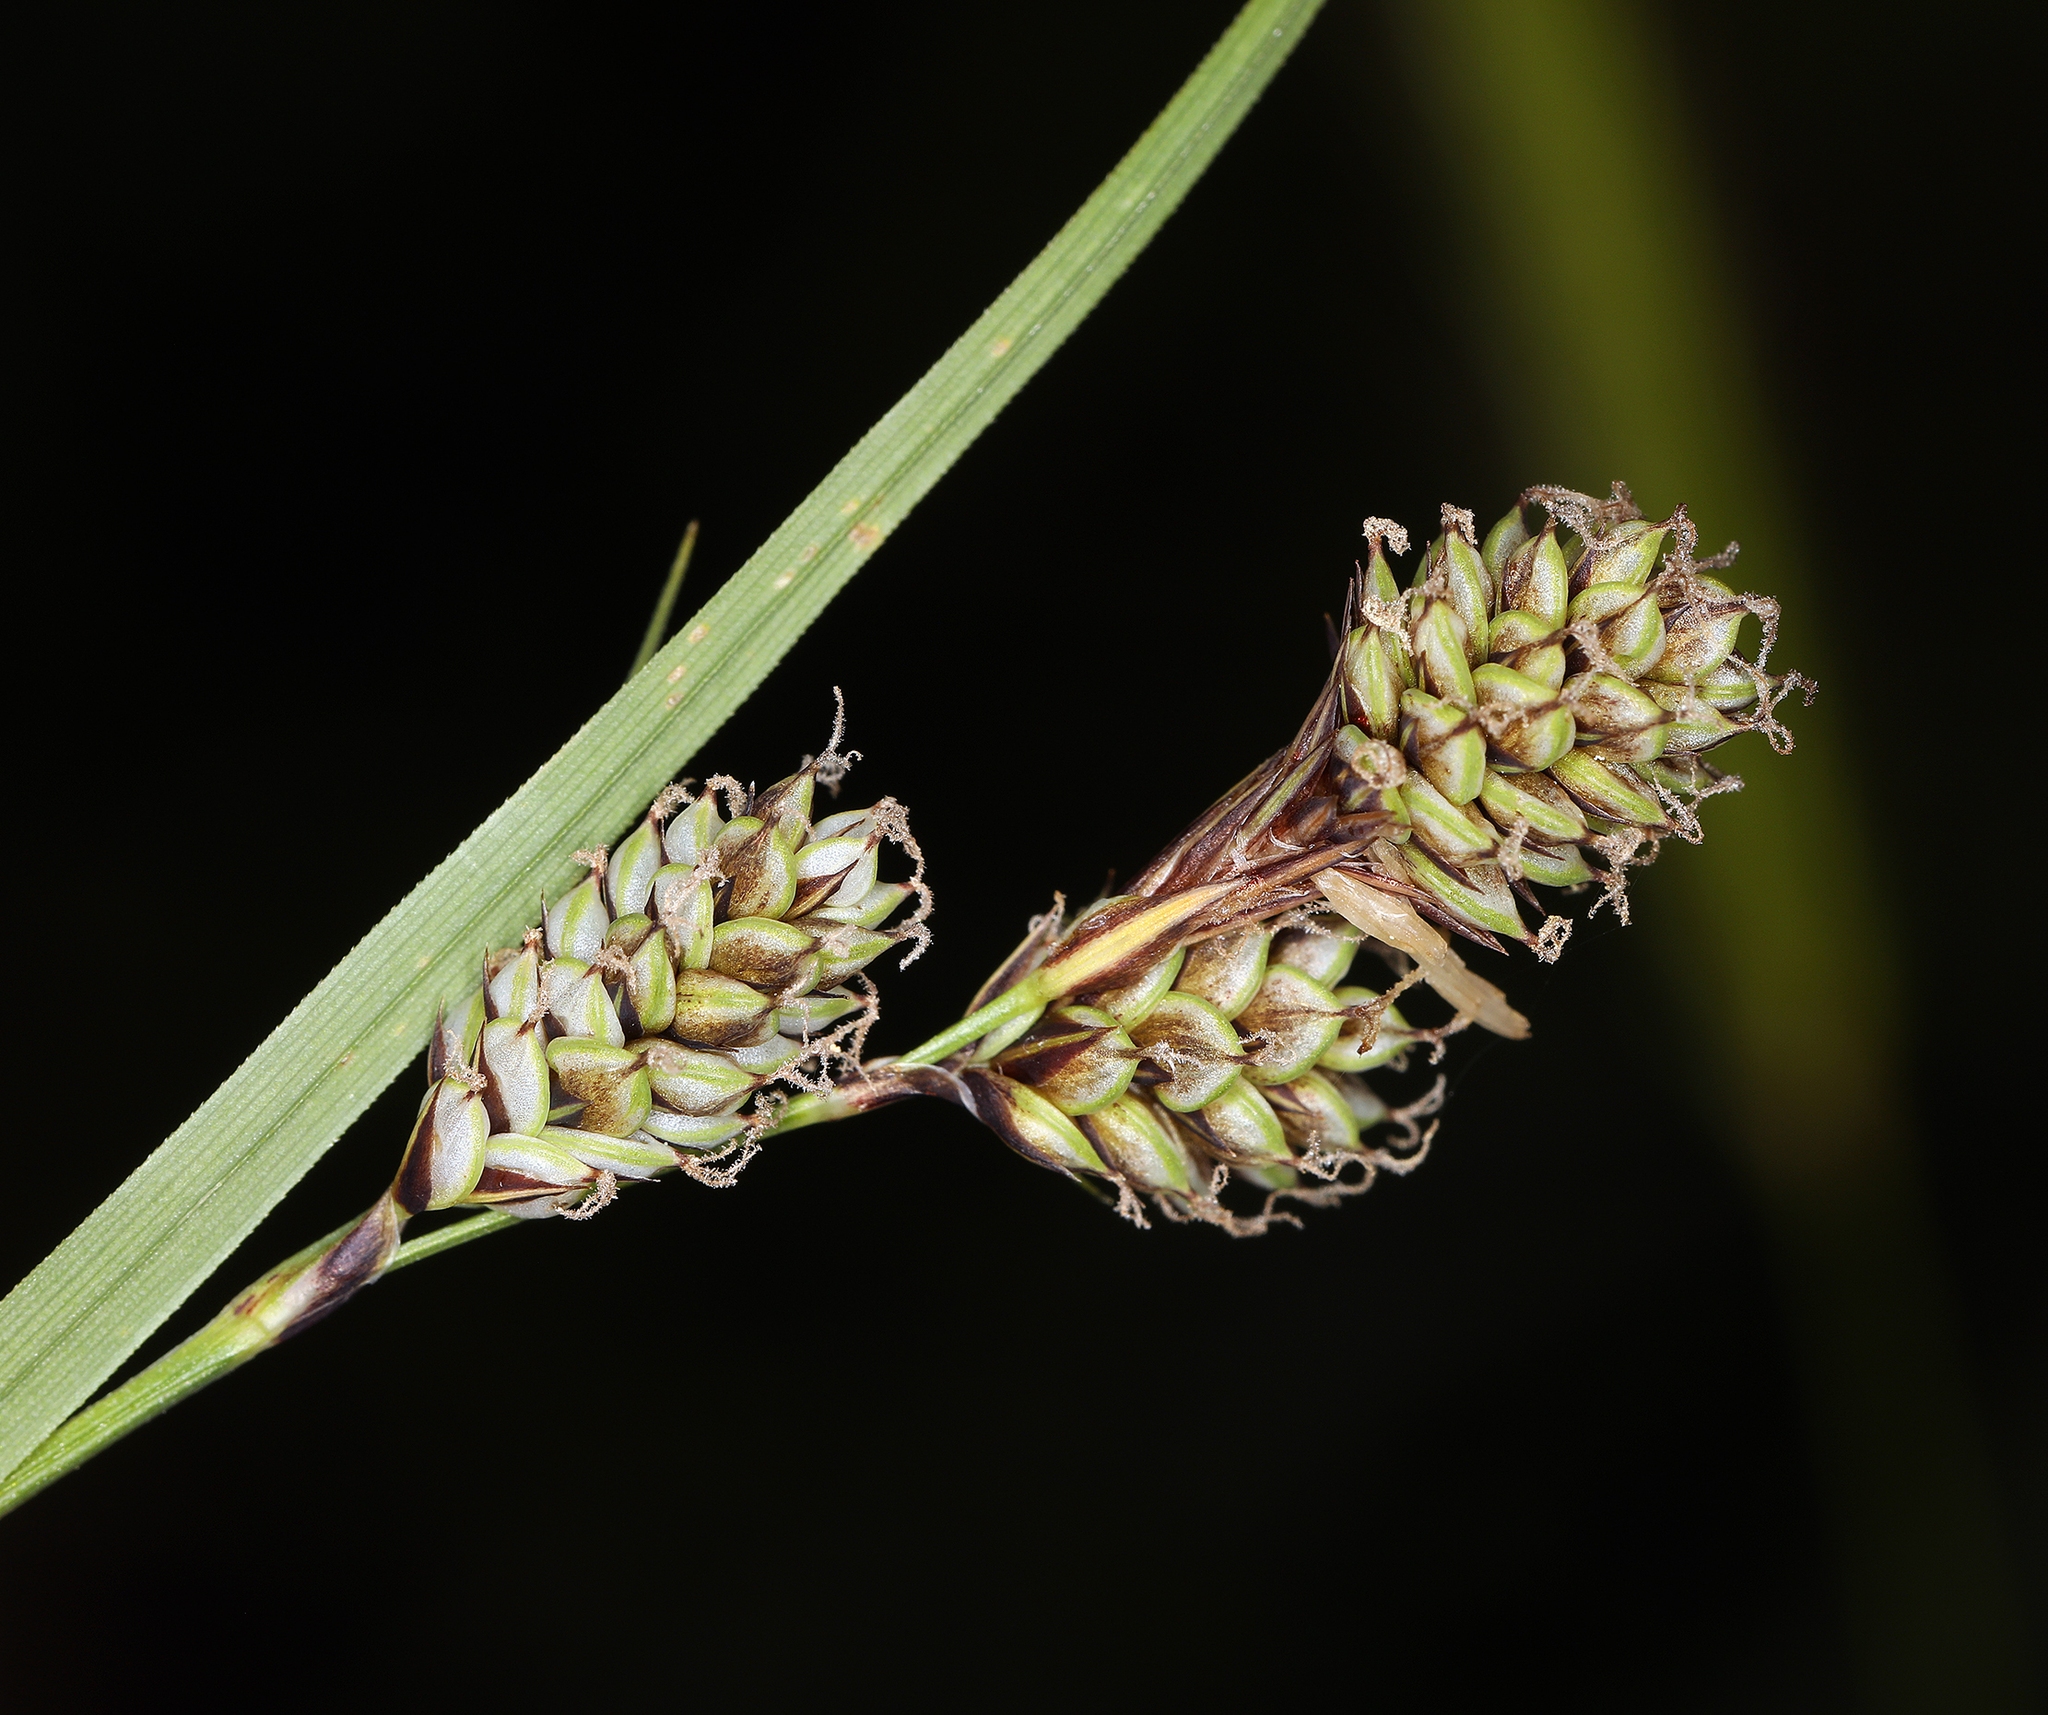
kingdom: Plantae
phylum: Tracheophyta
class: Liliopsida
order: Poales
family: Cyperaceae
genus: Carex
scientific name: Carex heteroneura
